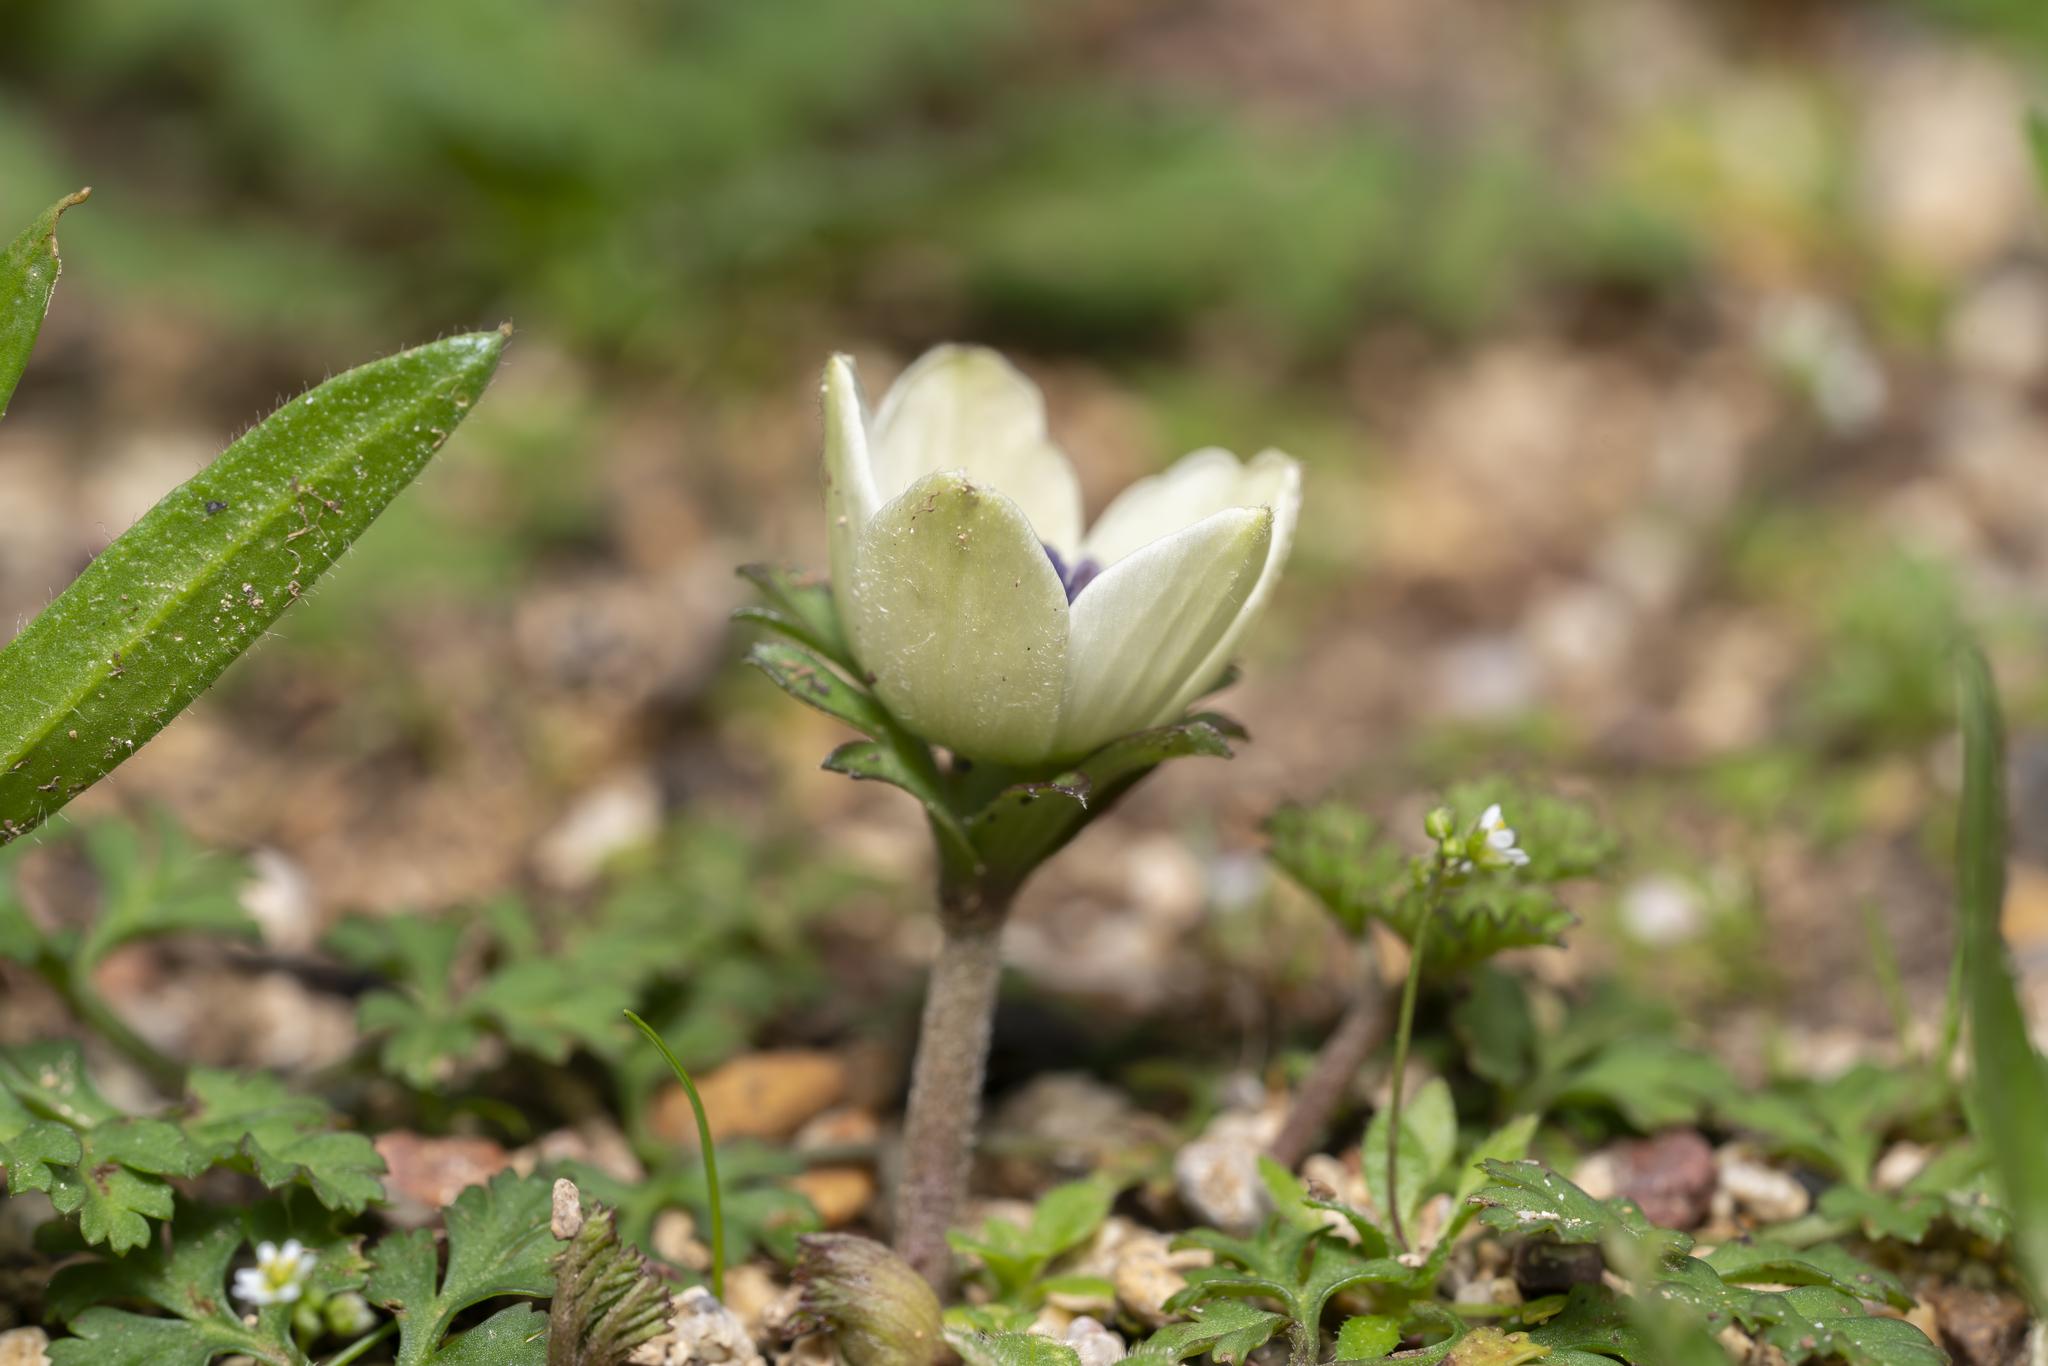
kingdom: Plantae
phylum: Tracheophyta
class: Magnoliopsida
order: Ranunculales
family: Ranunculaceae
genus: Anemone
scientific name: Anemone coronaria
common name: Poppy anemone
